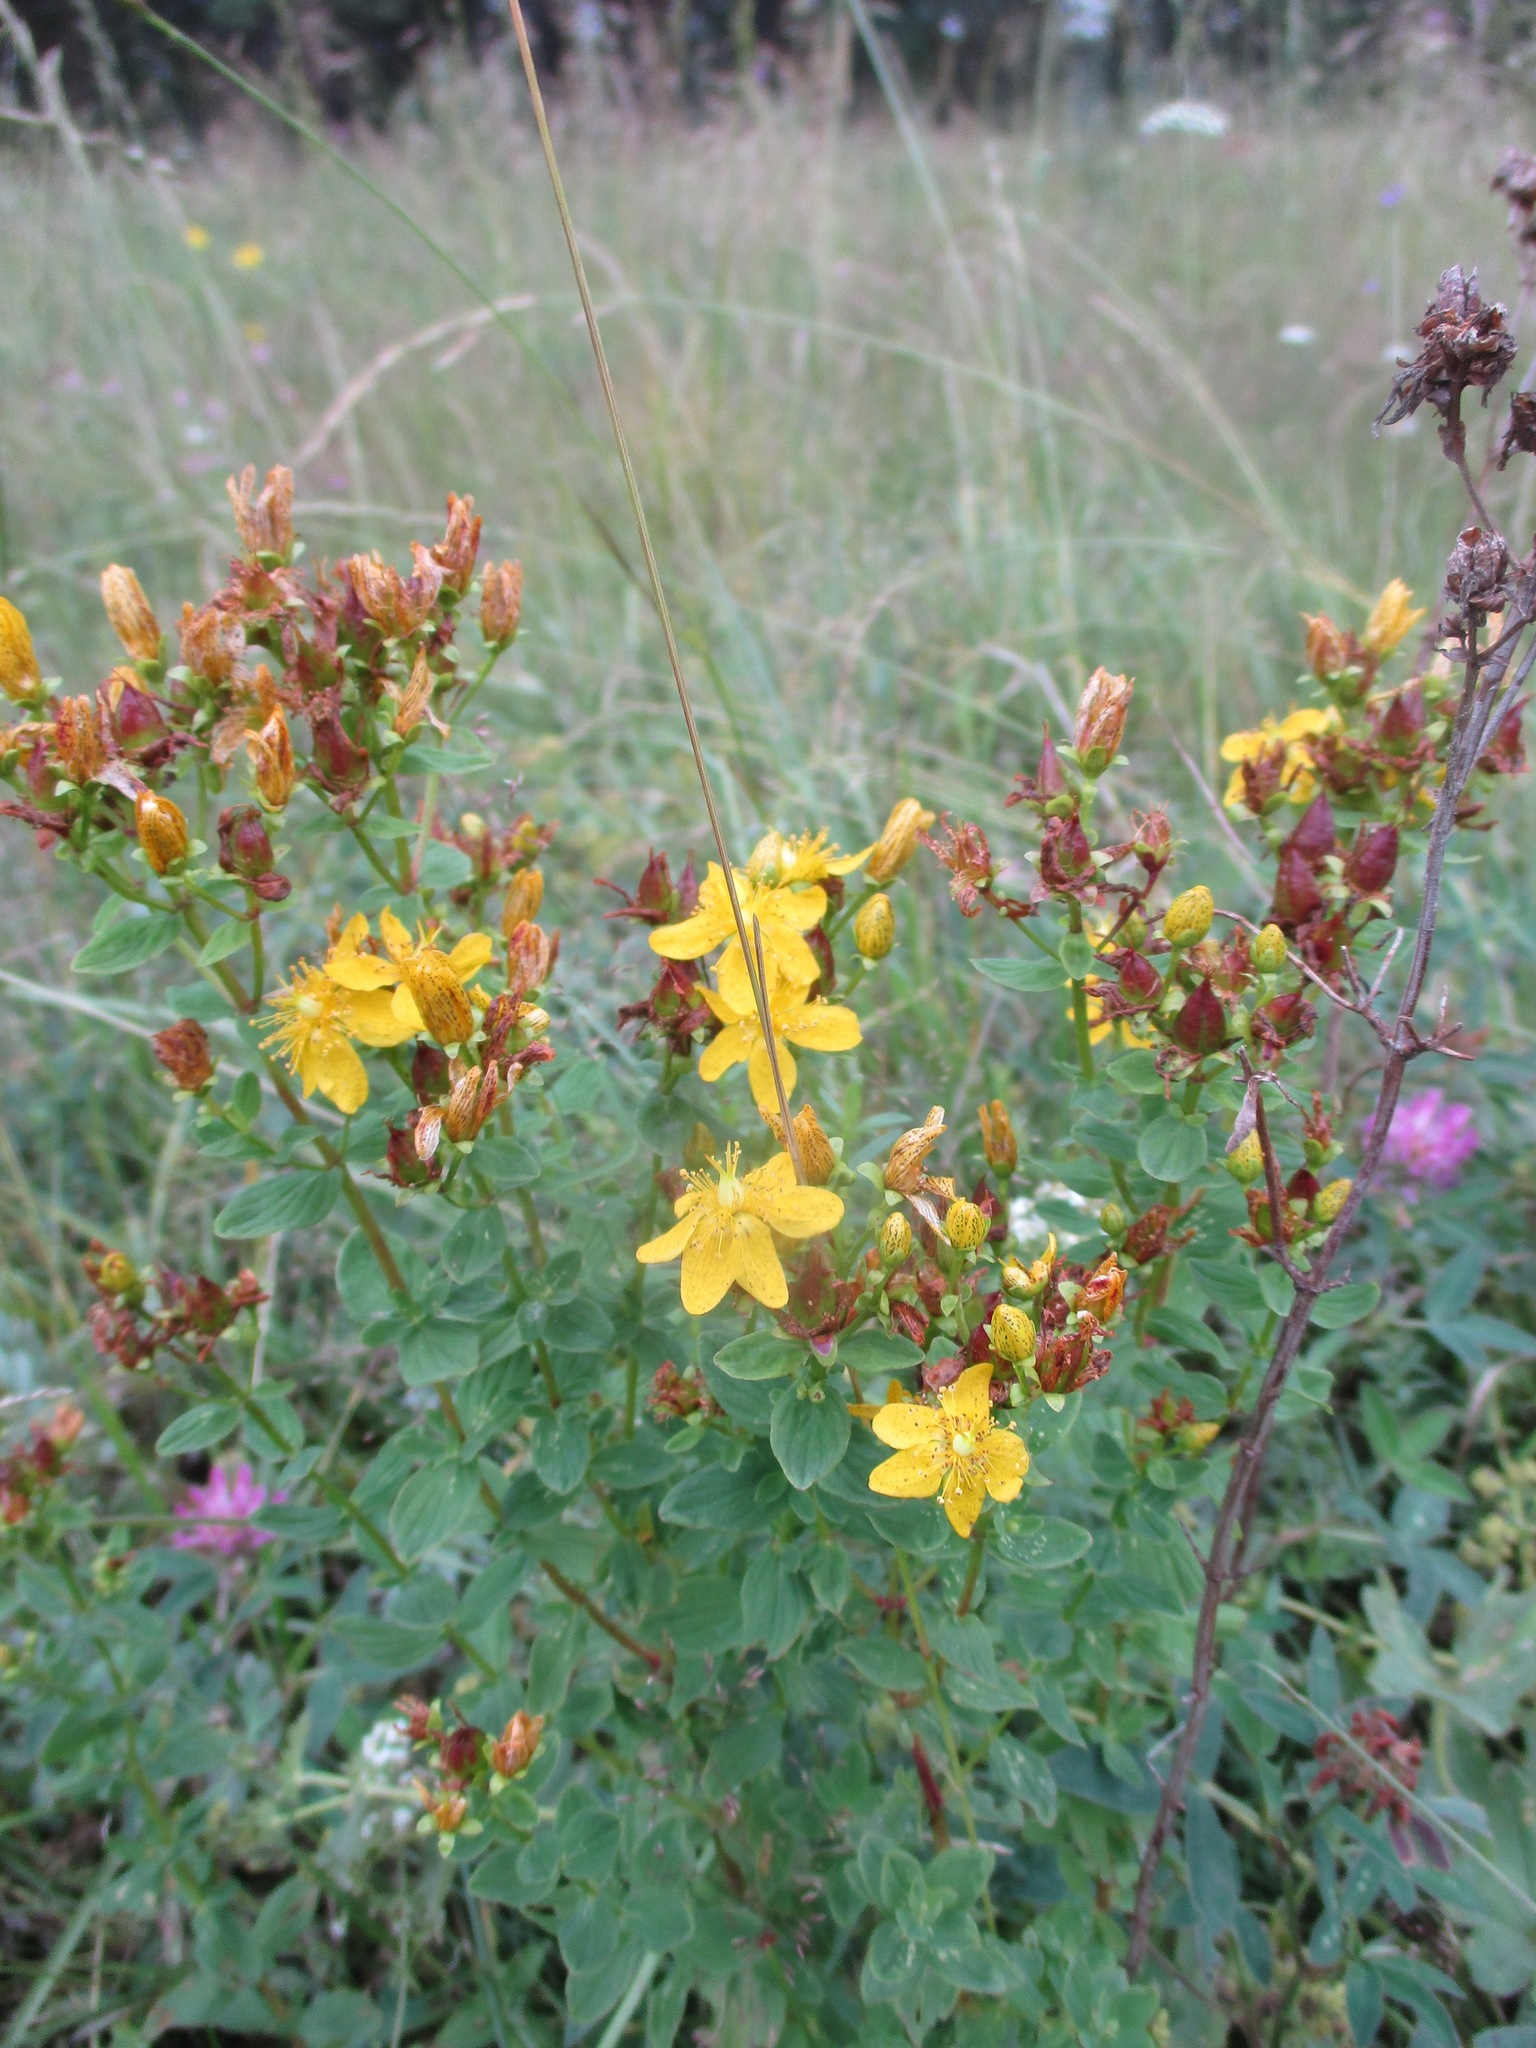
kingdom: Plantae
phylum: Tracheophyta
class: Magnoliopsida
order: Malpighiales
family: Hypericaceae
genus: Hypericum
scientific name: Hypericum maculatum
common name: Imperforate st. john's-wort
